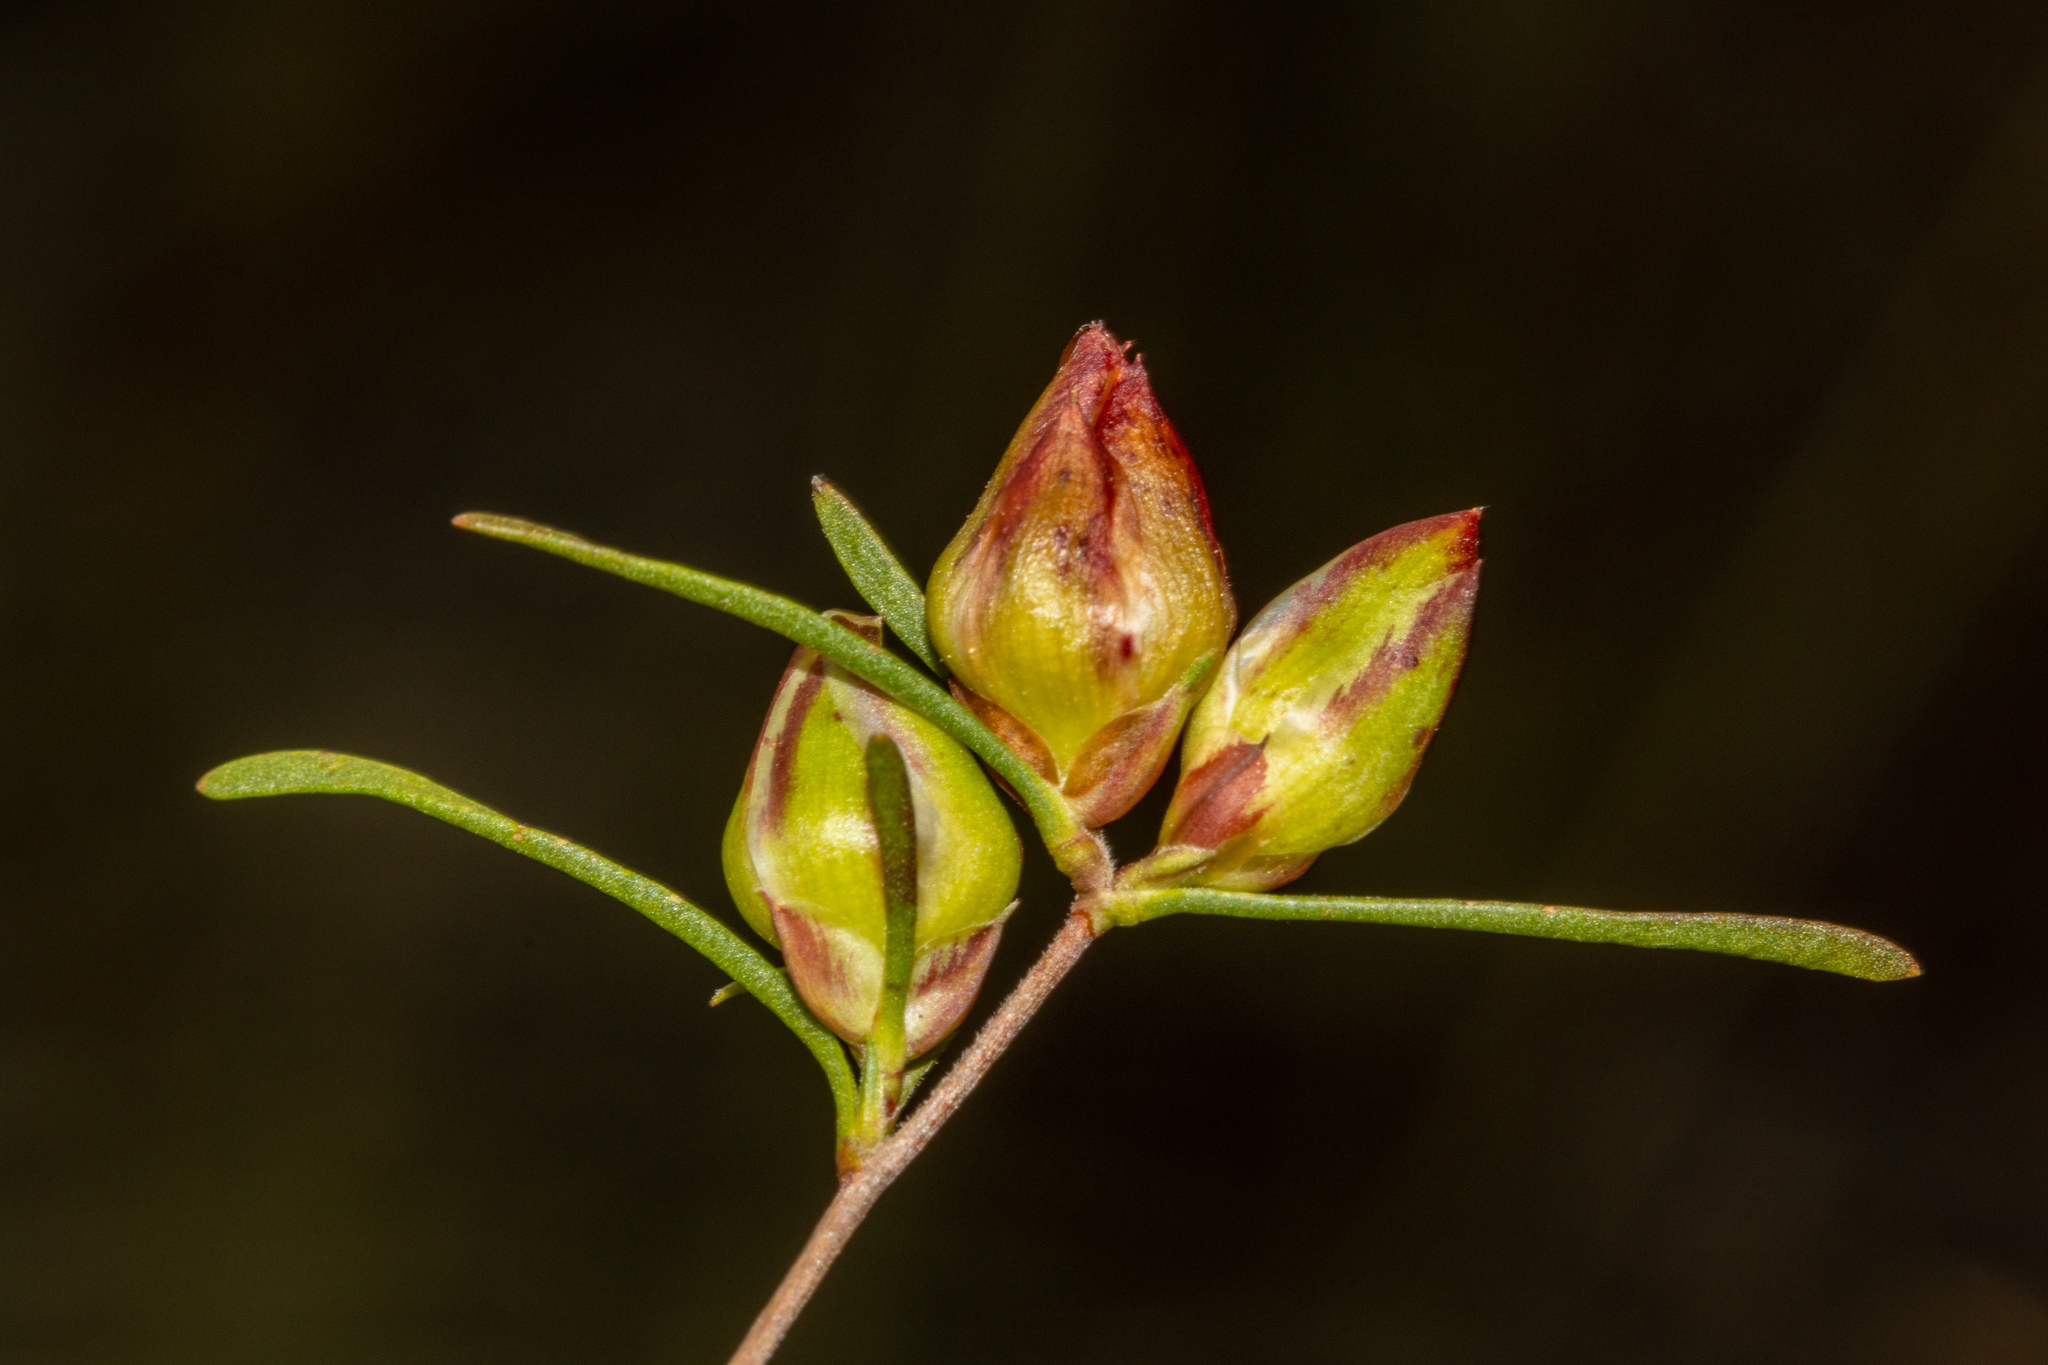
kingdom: Plantae
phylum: Tracheophyta
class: Magnoliopsida
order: Dilleniales
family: Dilleniaceae
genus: Hibbertia
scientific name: Hibbertia virgata
